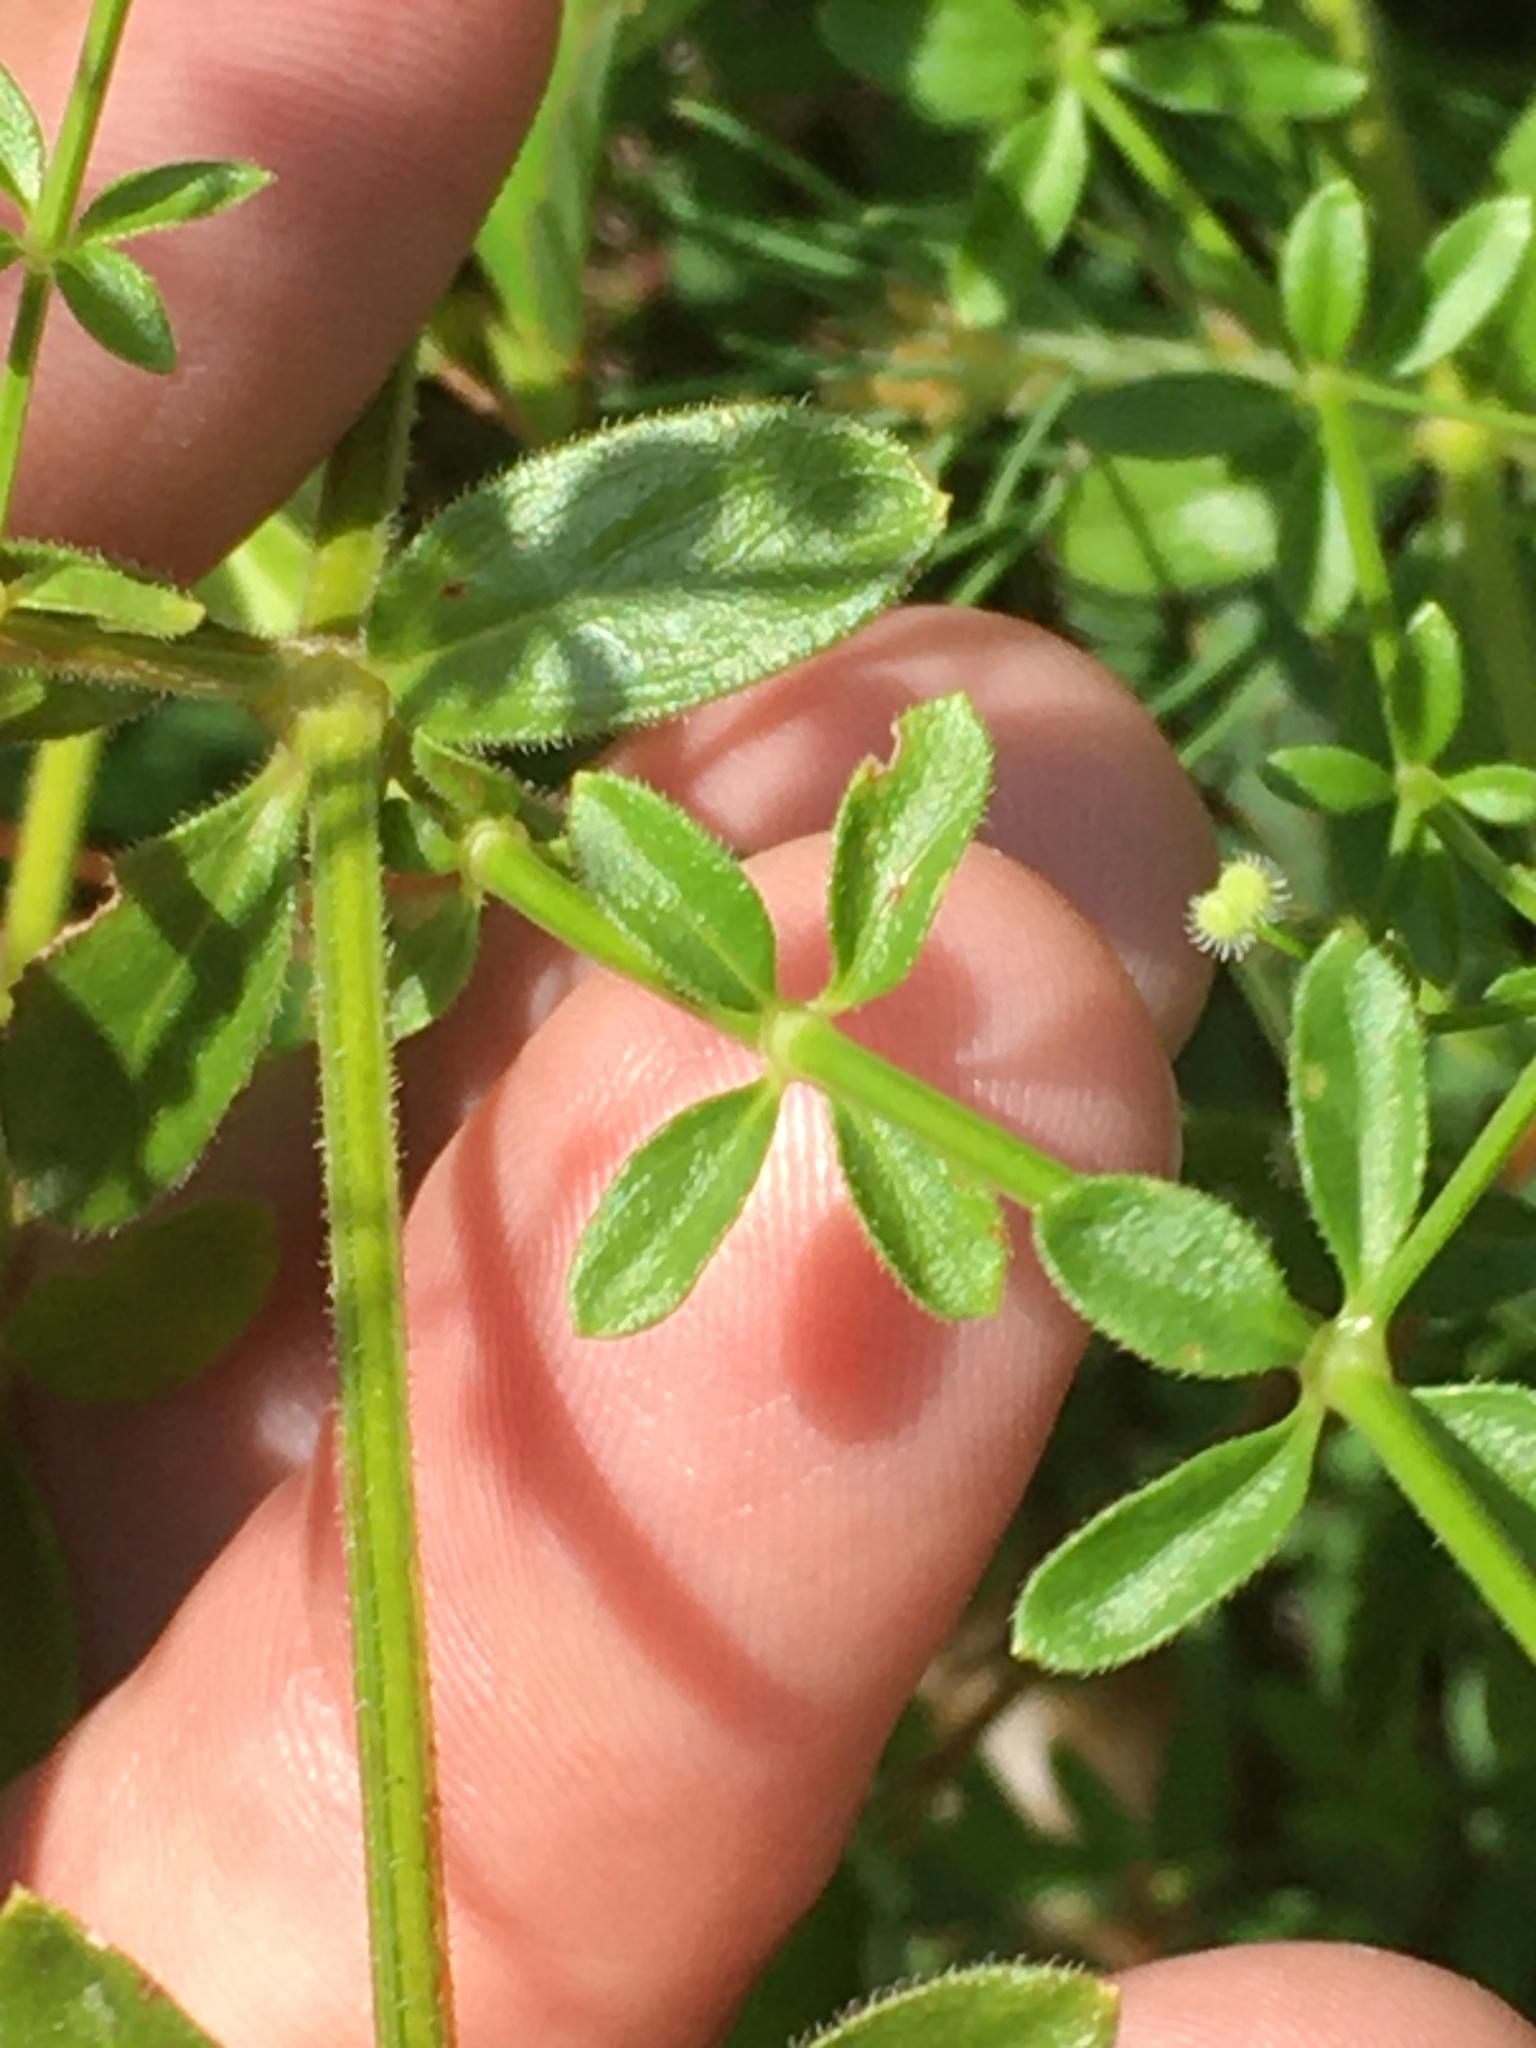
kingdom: Plantae
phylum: Tracheophyta
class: Magnoliopsida
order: Gentianales
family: Rubiaceae
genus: Galium
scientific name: Galium pilosum
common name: Hairy bedstraw
